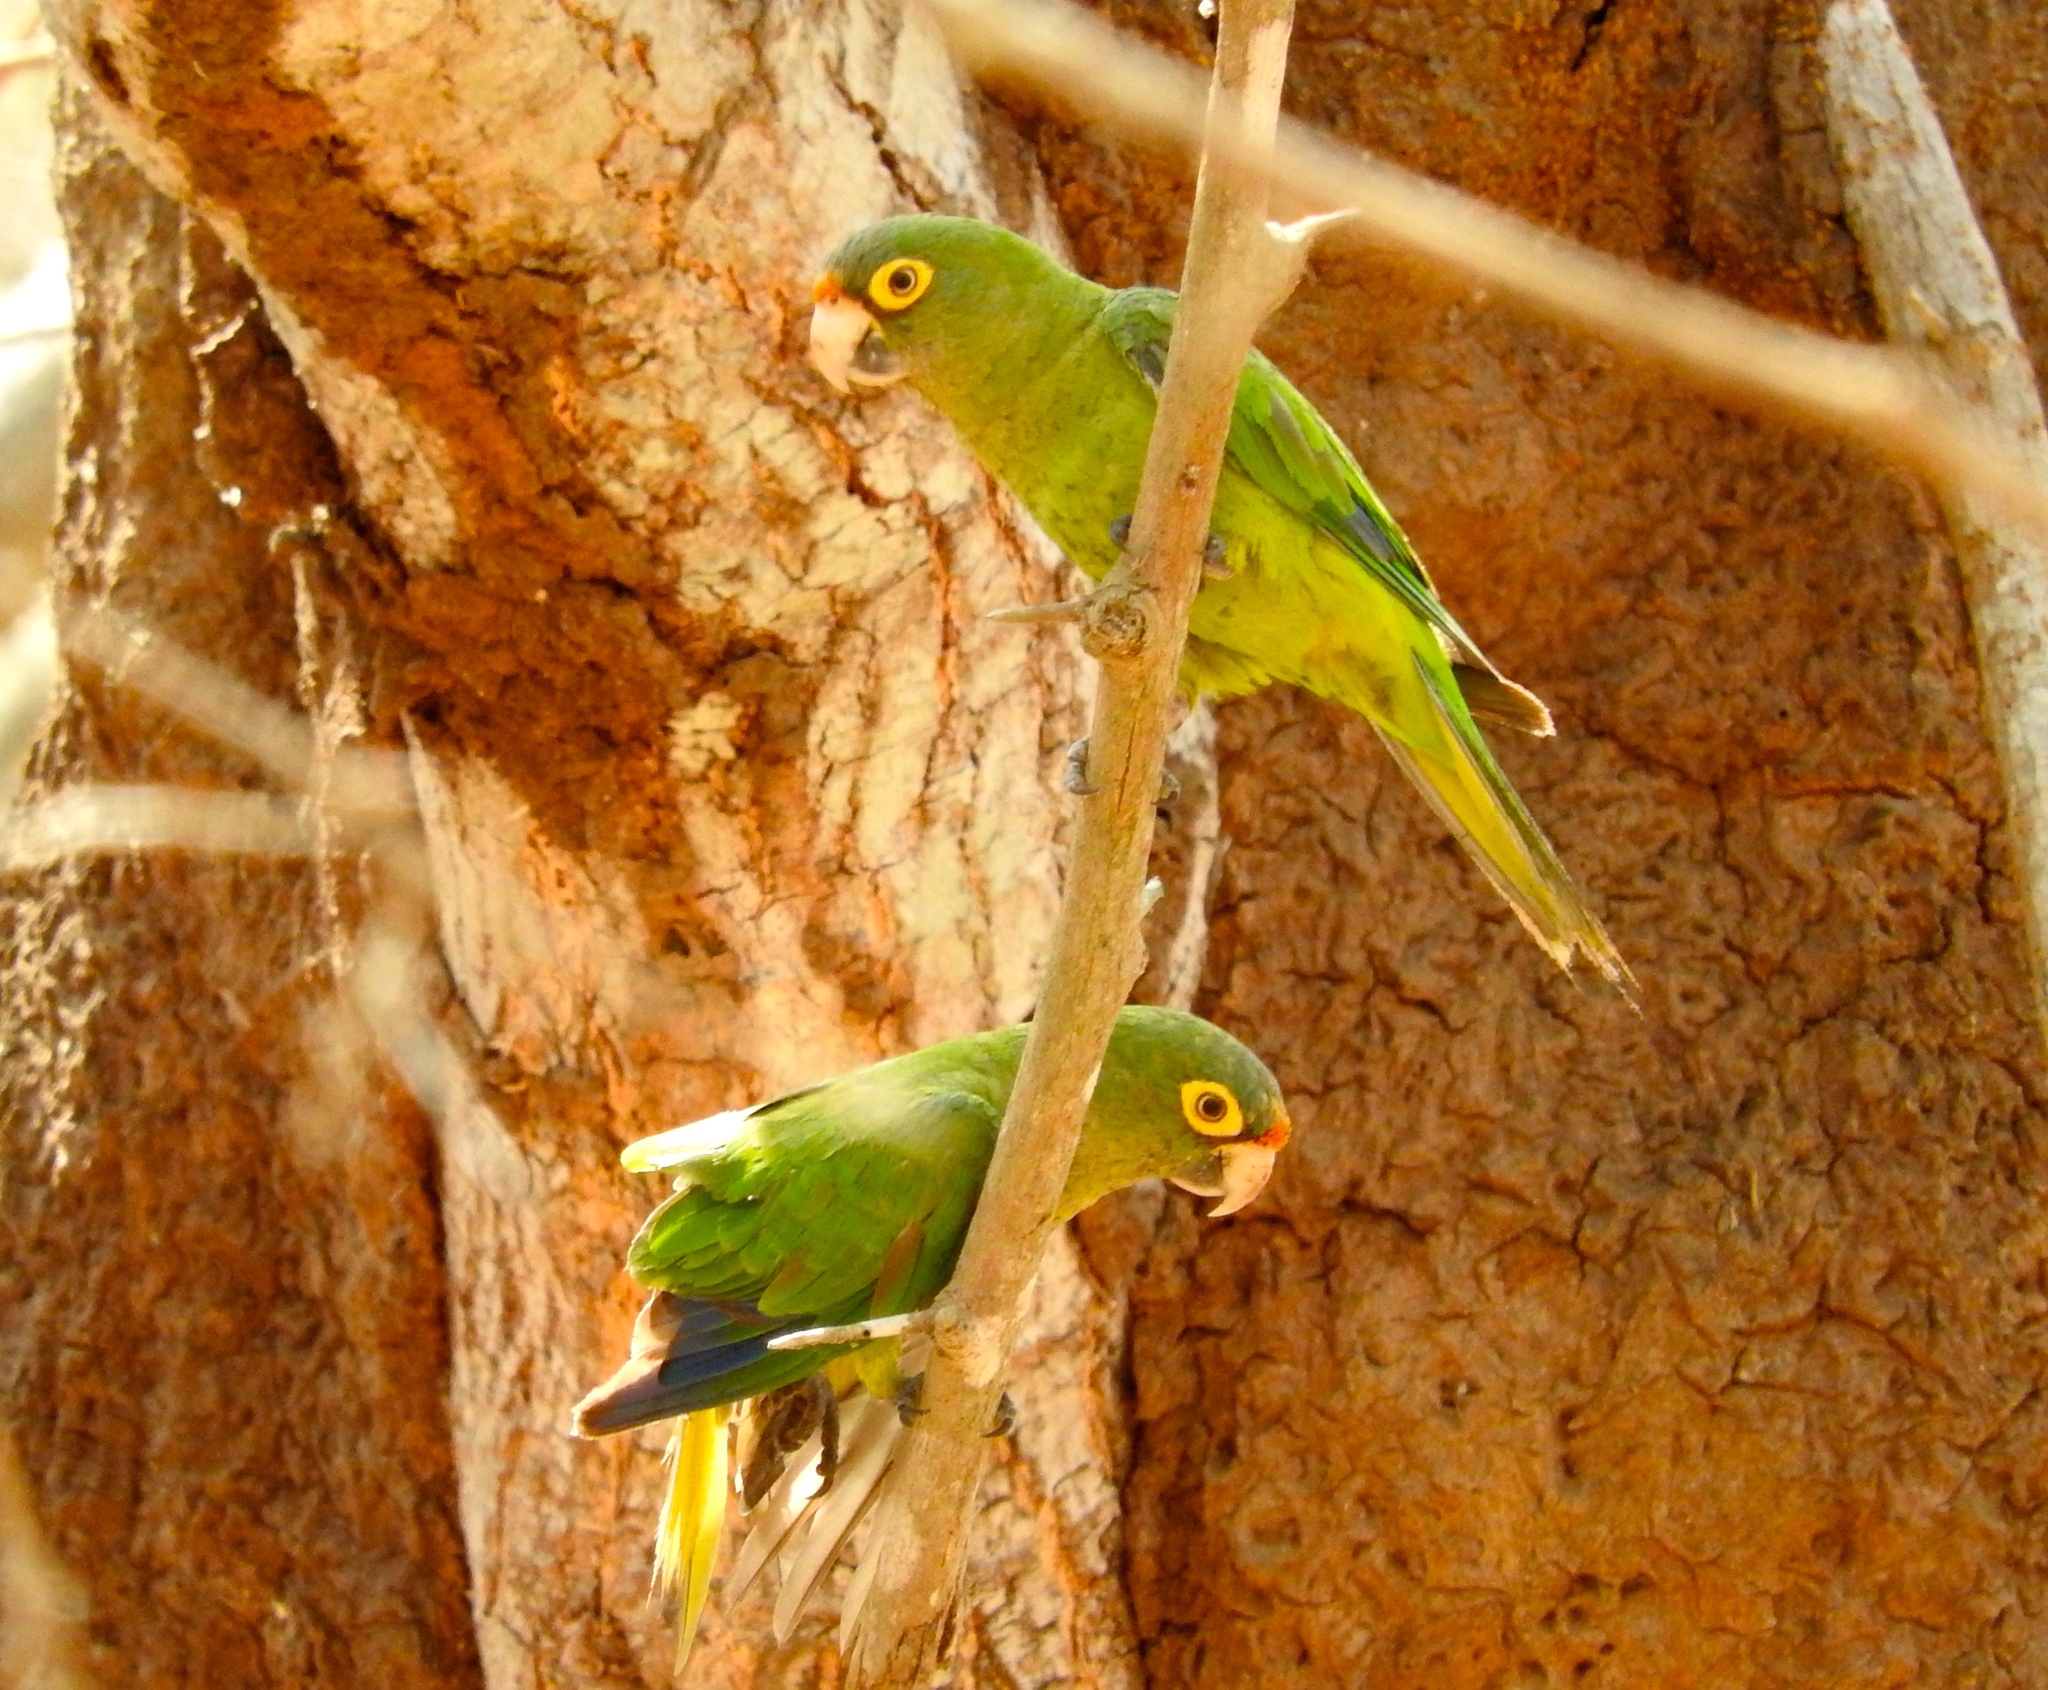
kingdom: Animalia
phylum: Chordata
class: Aves
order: Psittaciformes
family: Psittacidae
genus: Aratinga
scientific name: Aratinga canicularis
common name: Orange-fronted parakeet
